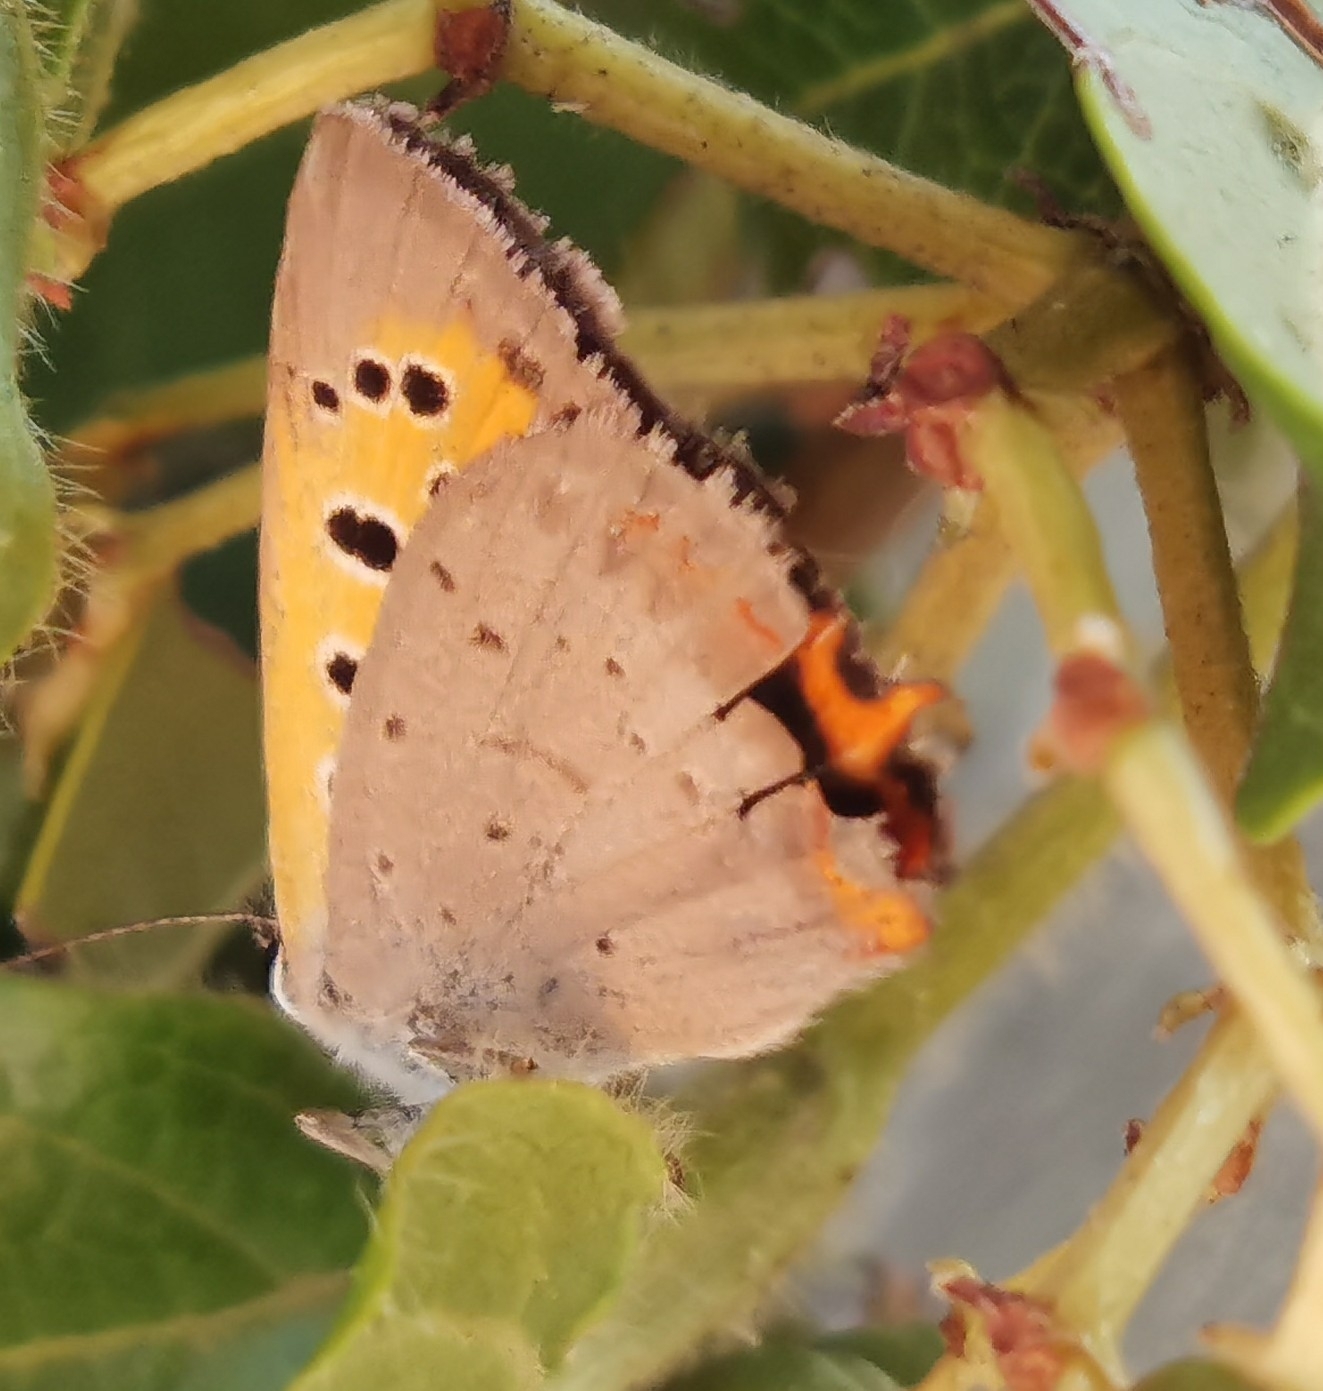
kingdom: Animalia
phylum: Arthropoda
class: Insecta
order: Lepidoptera
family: Lycaenidae
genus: Lycaena
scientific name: Lycaena phlaeas
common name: Small copper
